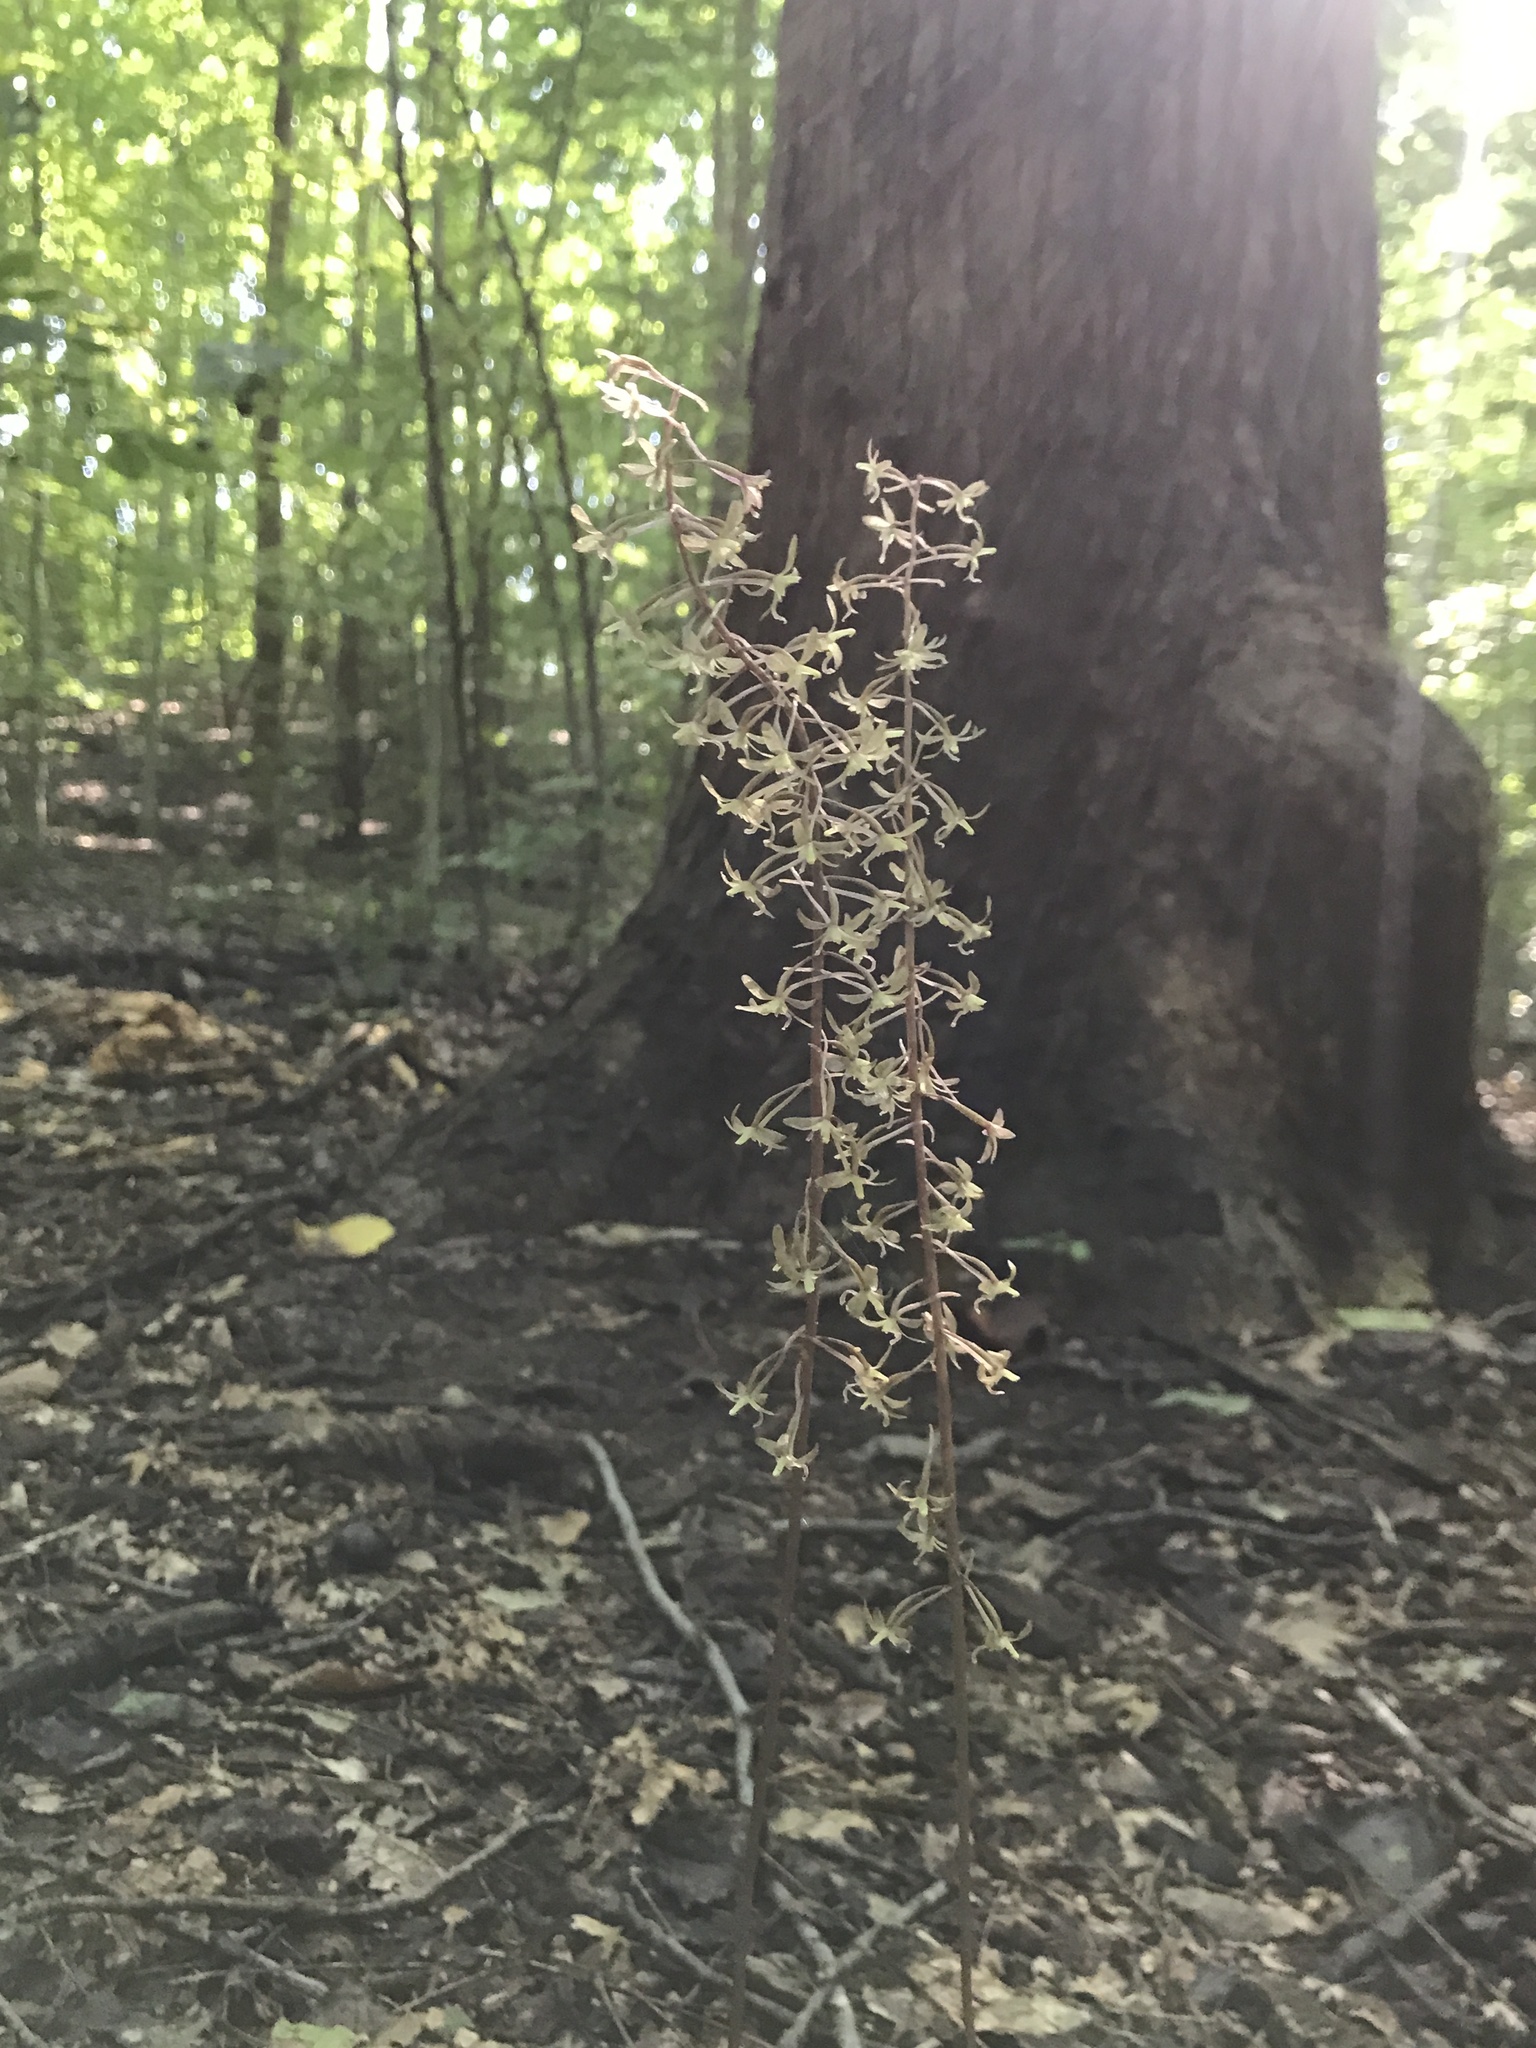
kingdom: Plantae
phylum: Tracheophyta
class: Liliopsida
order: Asparagales
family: Orchidaceae
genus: Tipularia
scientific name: Tipularia discolor
